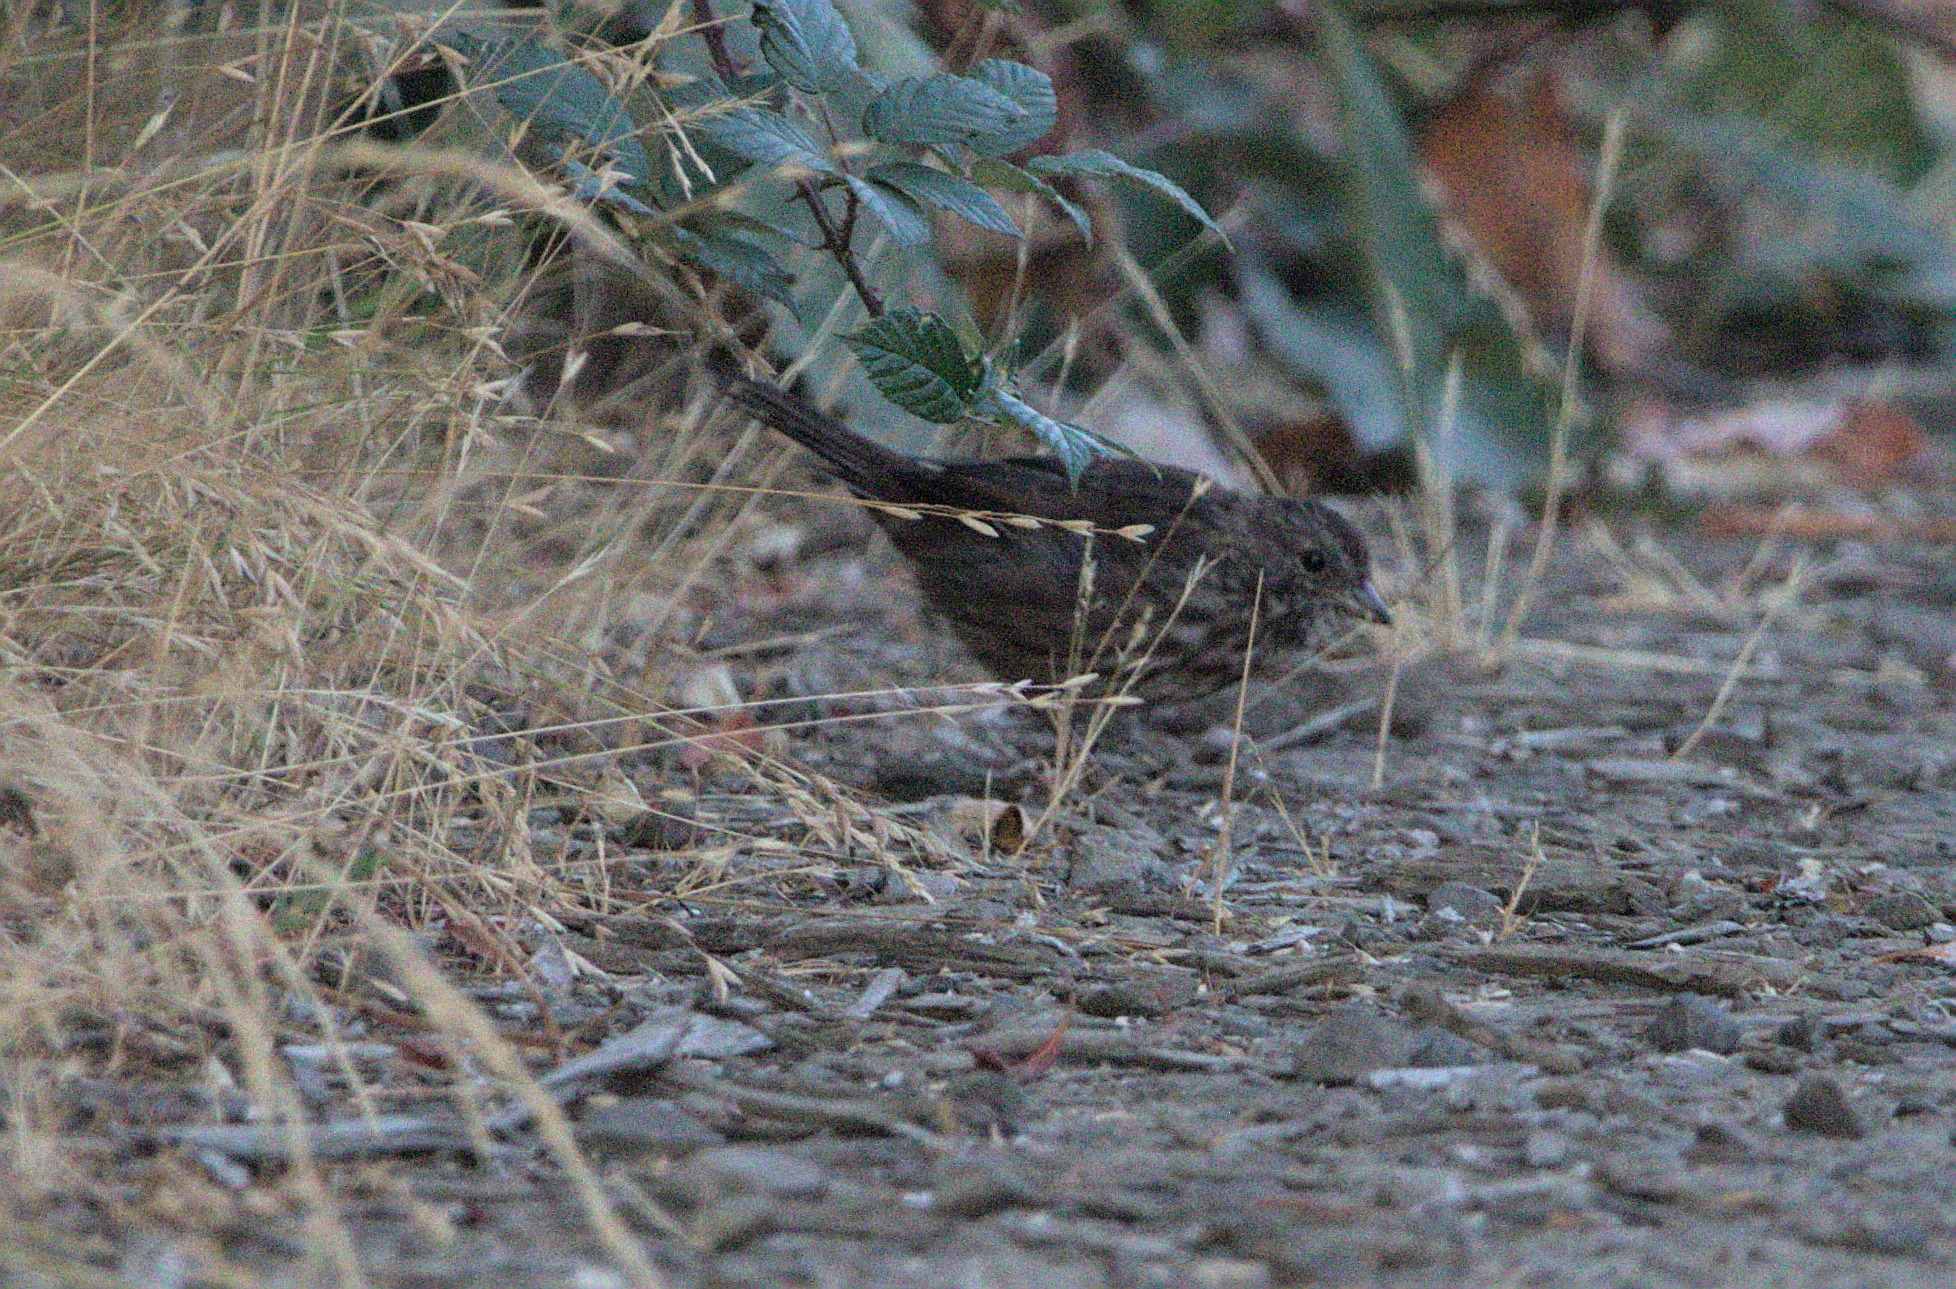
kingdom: Animalia
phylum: Chordata
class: Aves
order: Passeriformes
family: Passerellidae
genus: Melospiza
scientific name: Melospiza melodia
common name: Song sparrow
